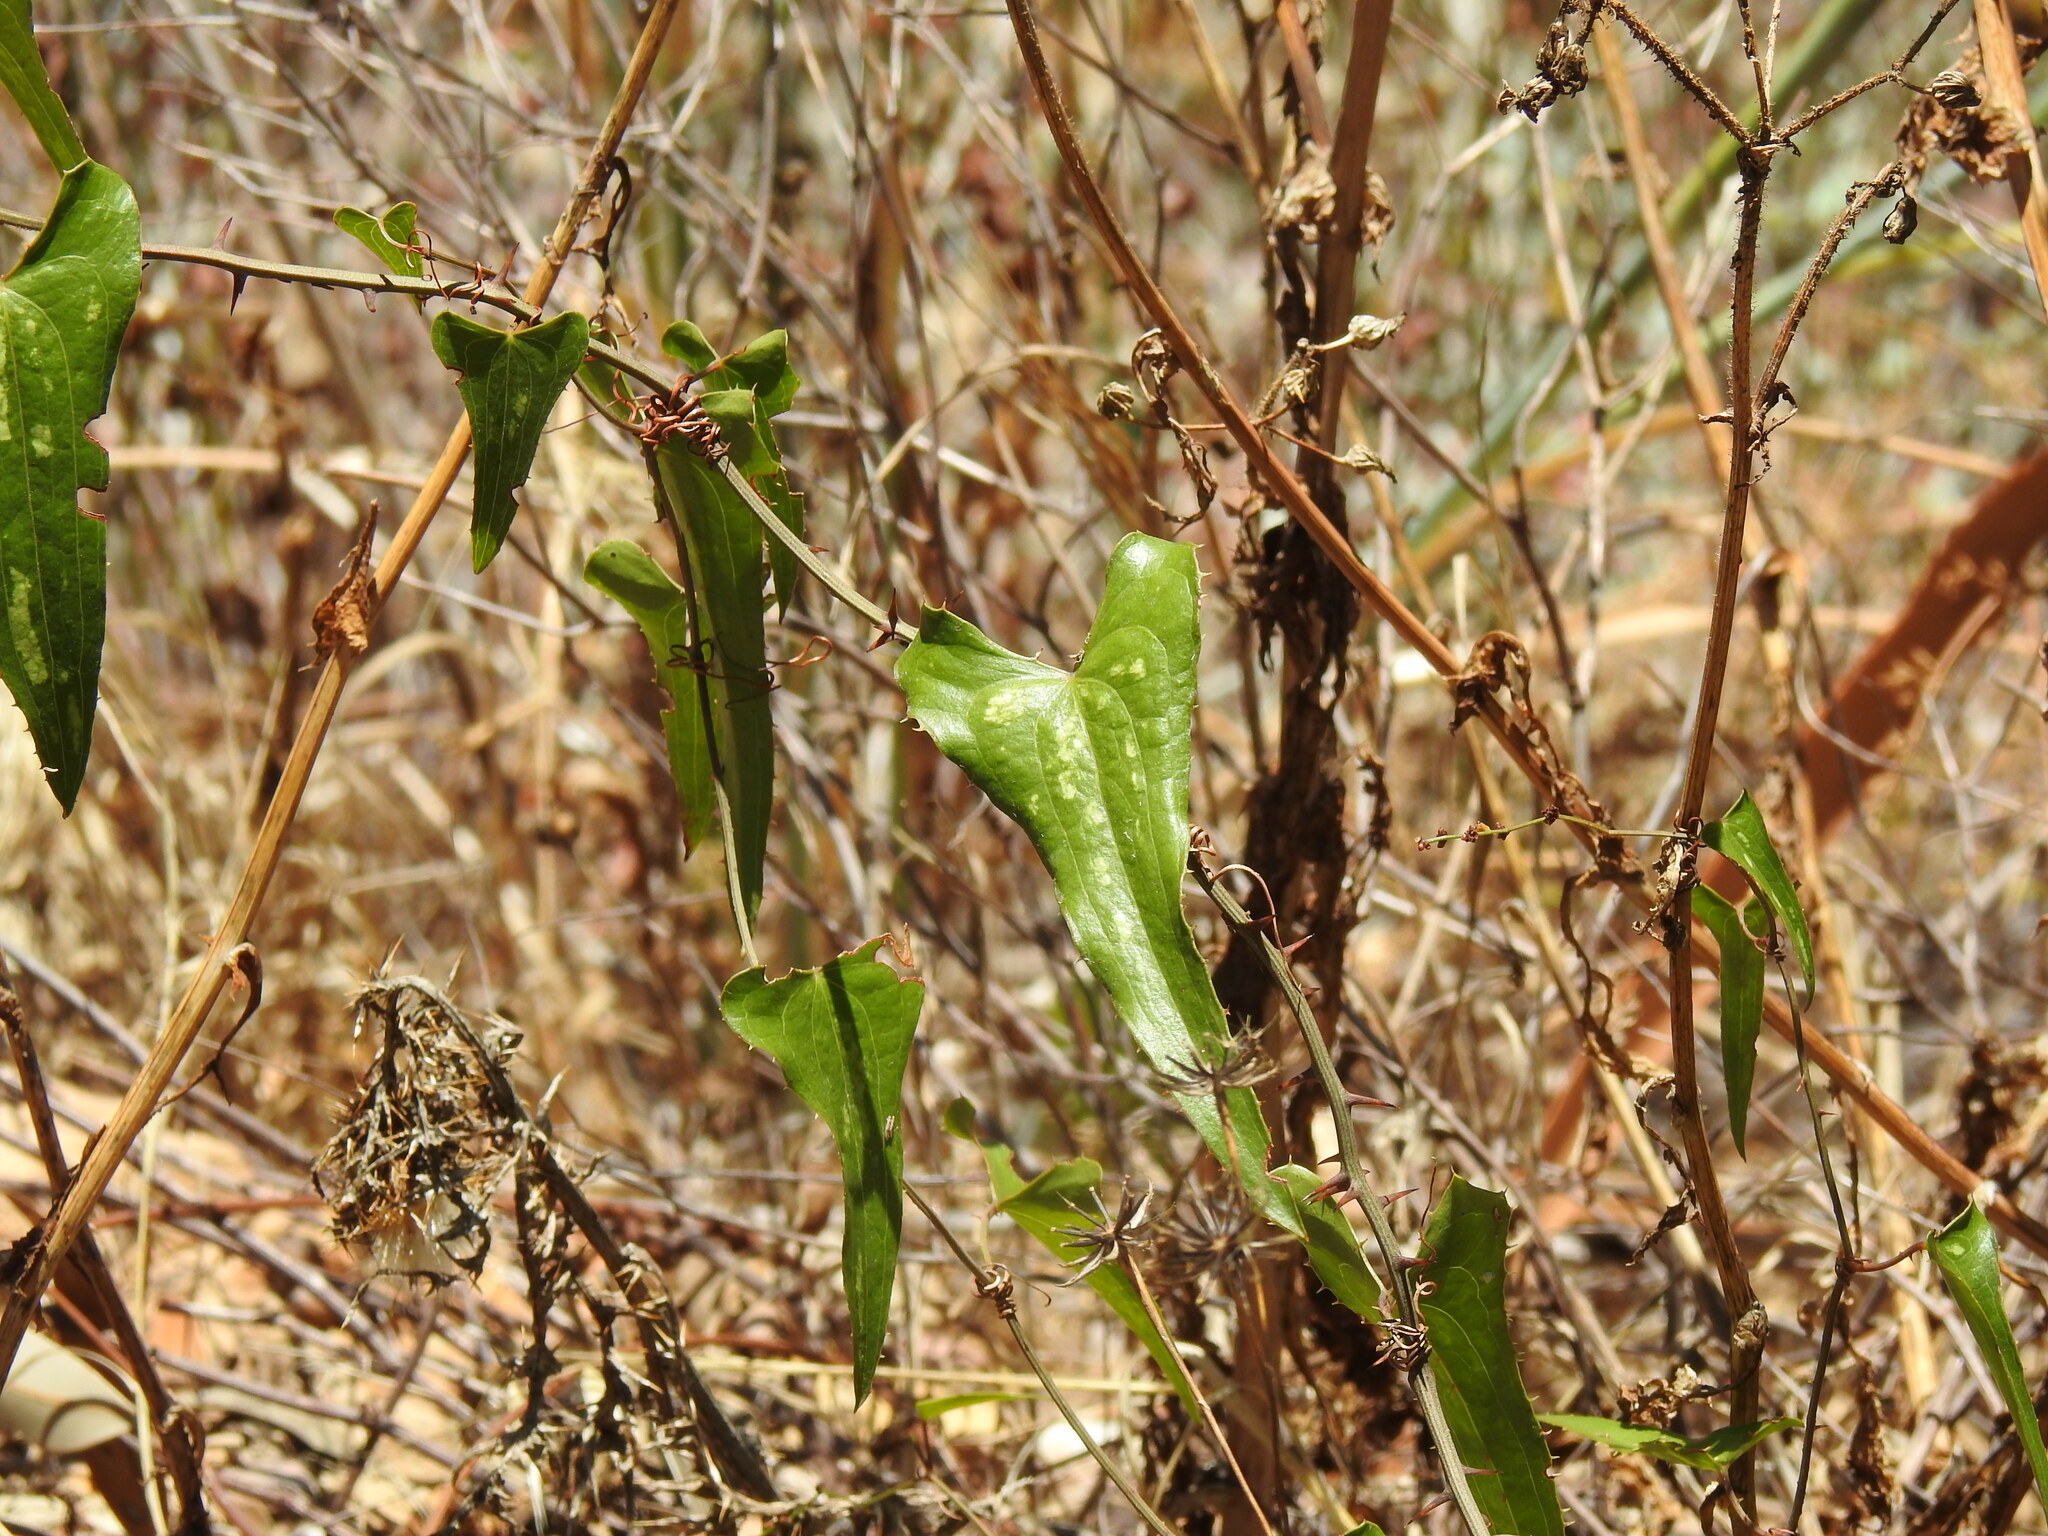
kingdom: Plantae
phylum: Tracheophyta
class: Liliopsida
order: Liliales
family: Smilacaceae
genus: Smilax
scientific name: Smilax aspera
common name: Common smilax
